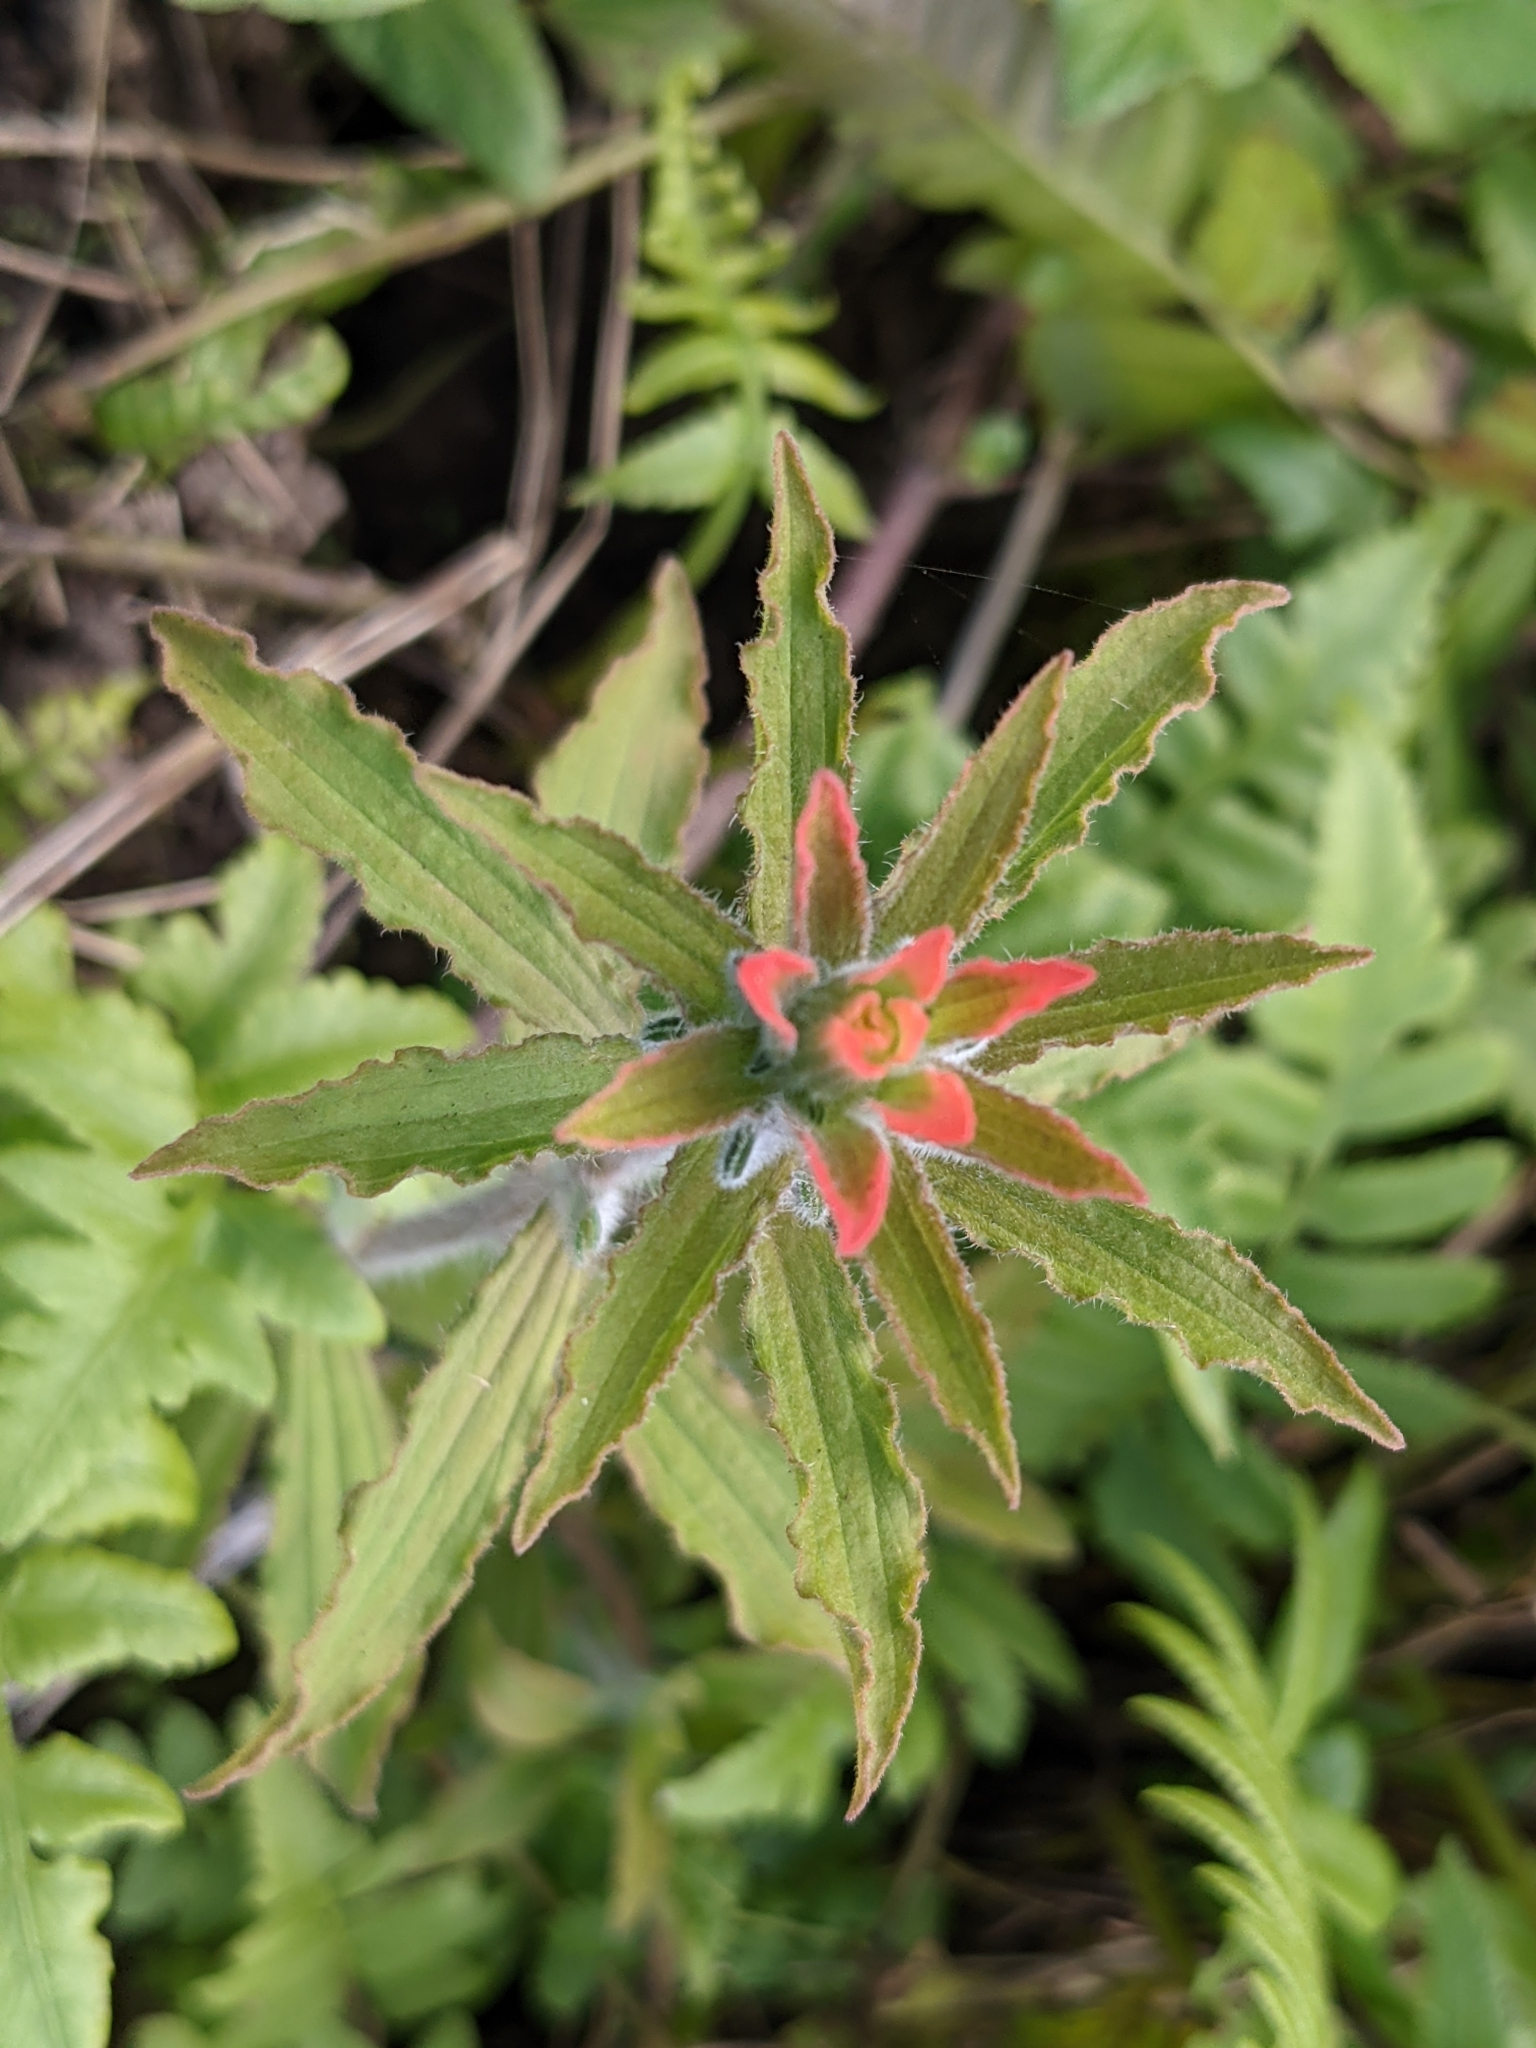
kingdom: Plantae
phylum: Tracheophyta
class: Magnoliopsida
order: Lamiales
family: Orobanchaceae
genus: Castilleja
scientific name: Castilleja arvensis
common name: Indian paintbrush
